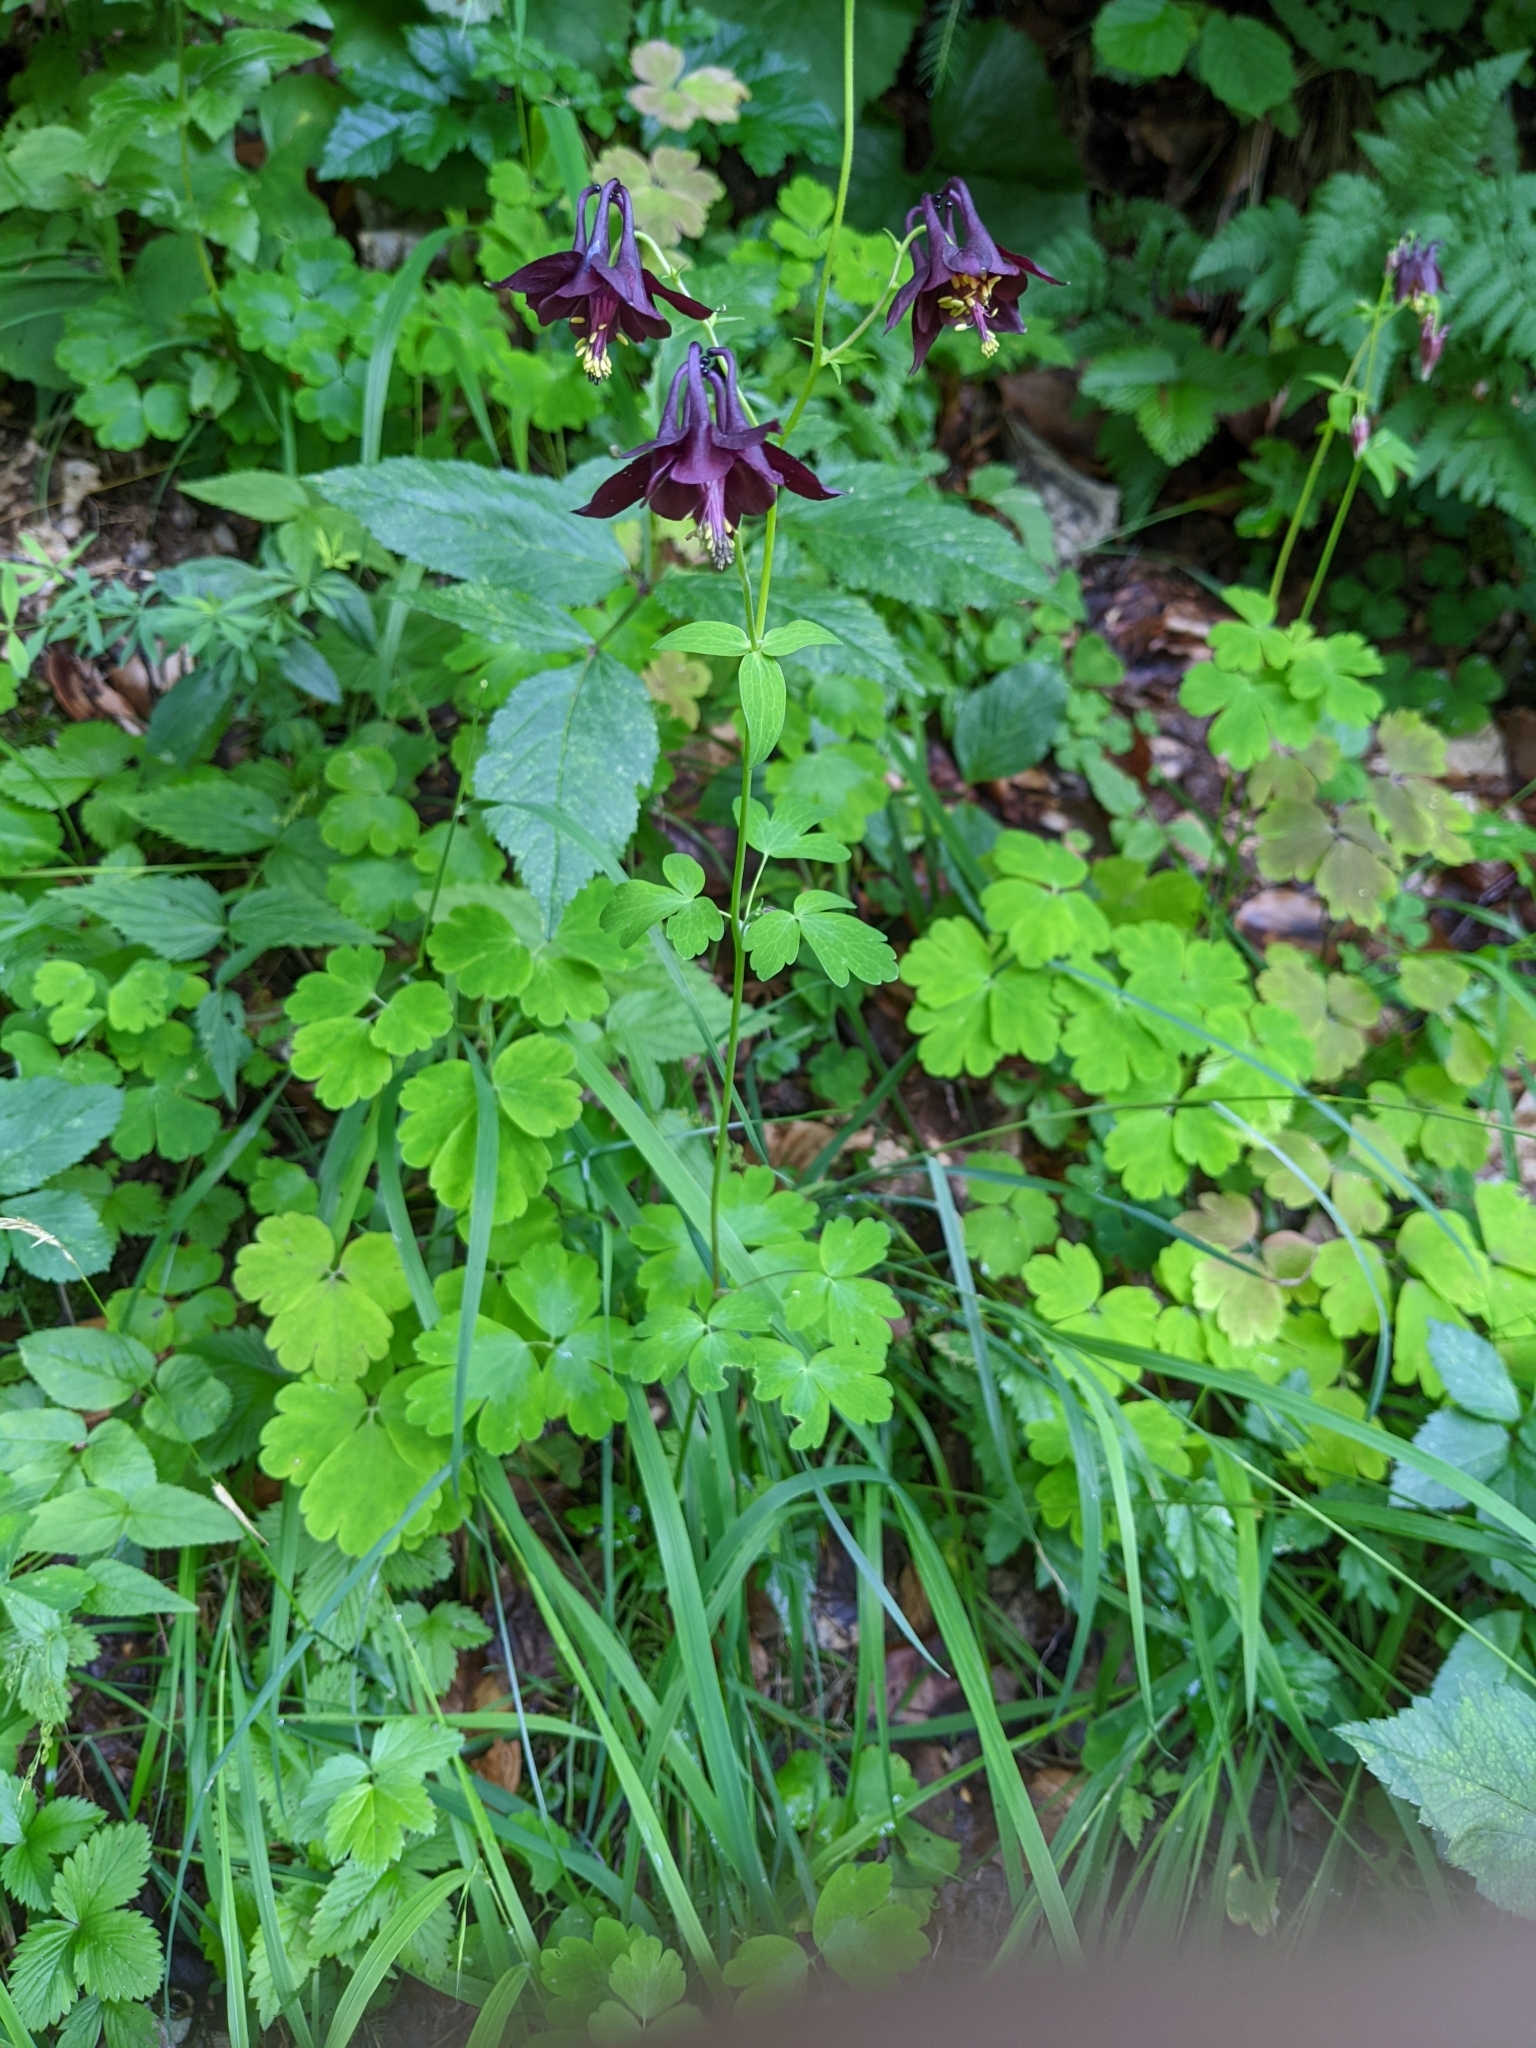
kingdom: Plantae
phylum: Tracheophyta
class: Magnoliopsida
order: Ranunculales
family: Ranunculaceae
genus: Aquilegia
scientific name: Aquilegia atrata
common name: Dark columbine
